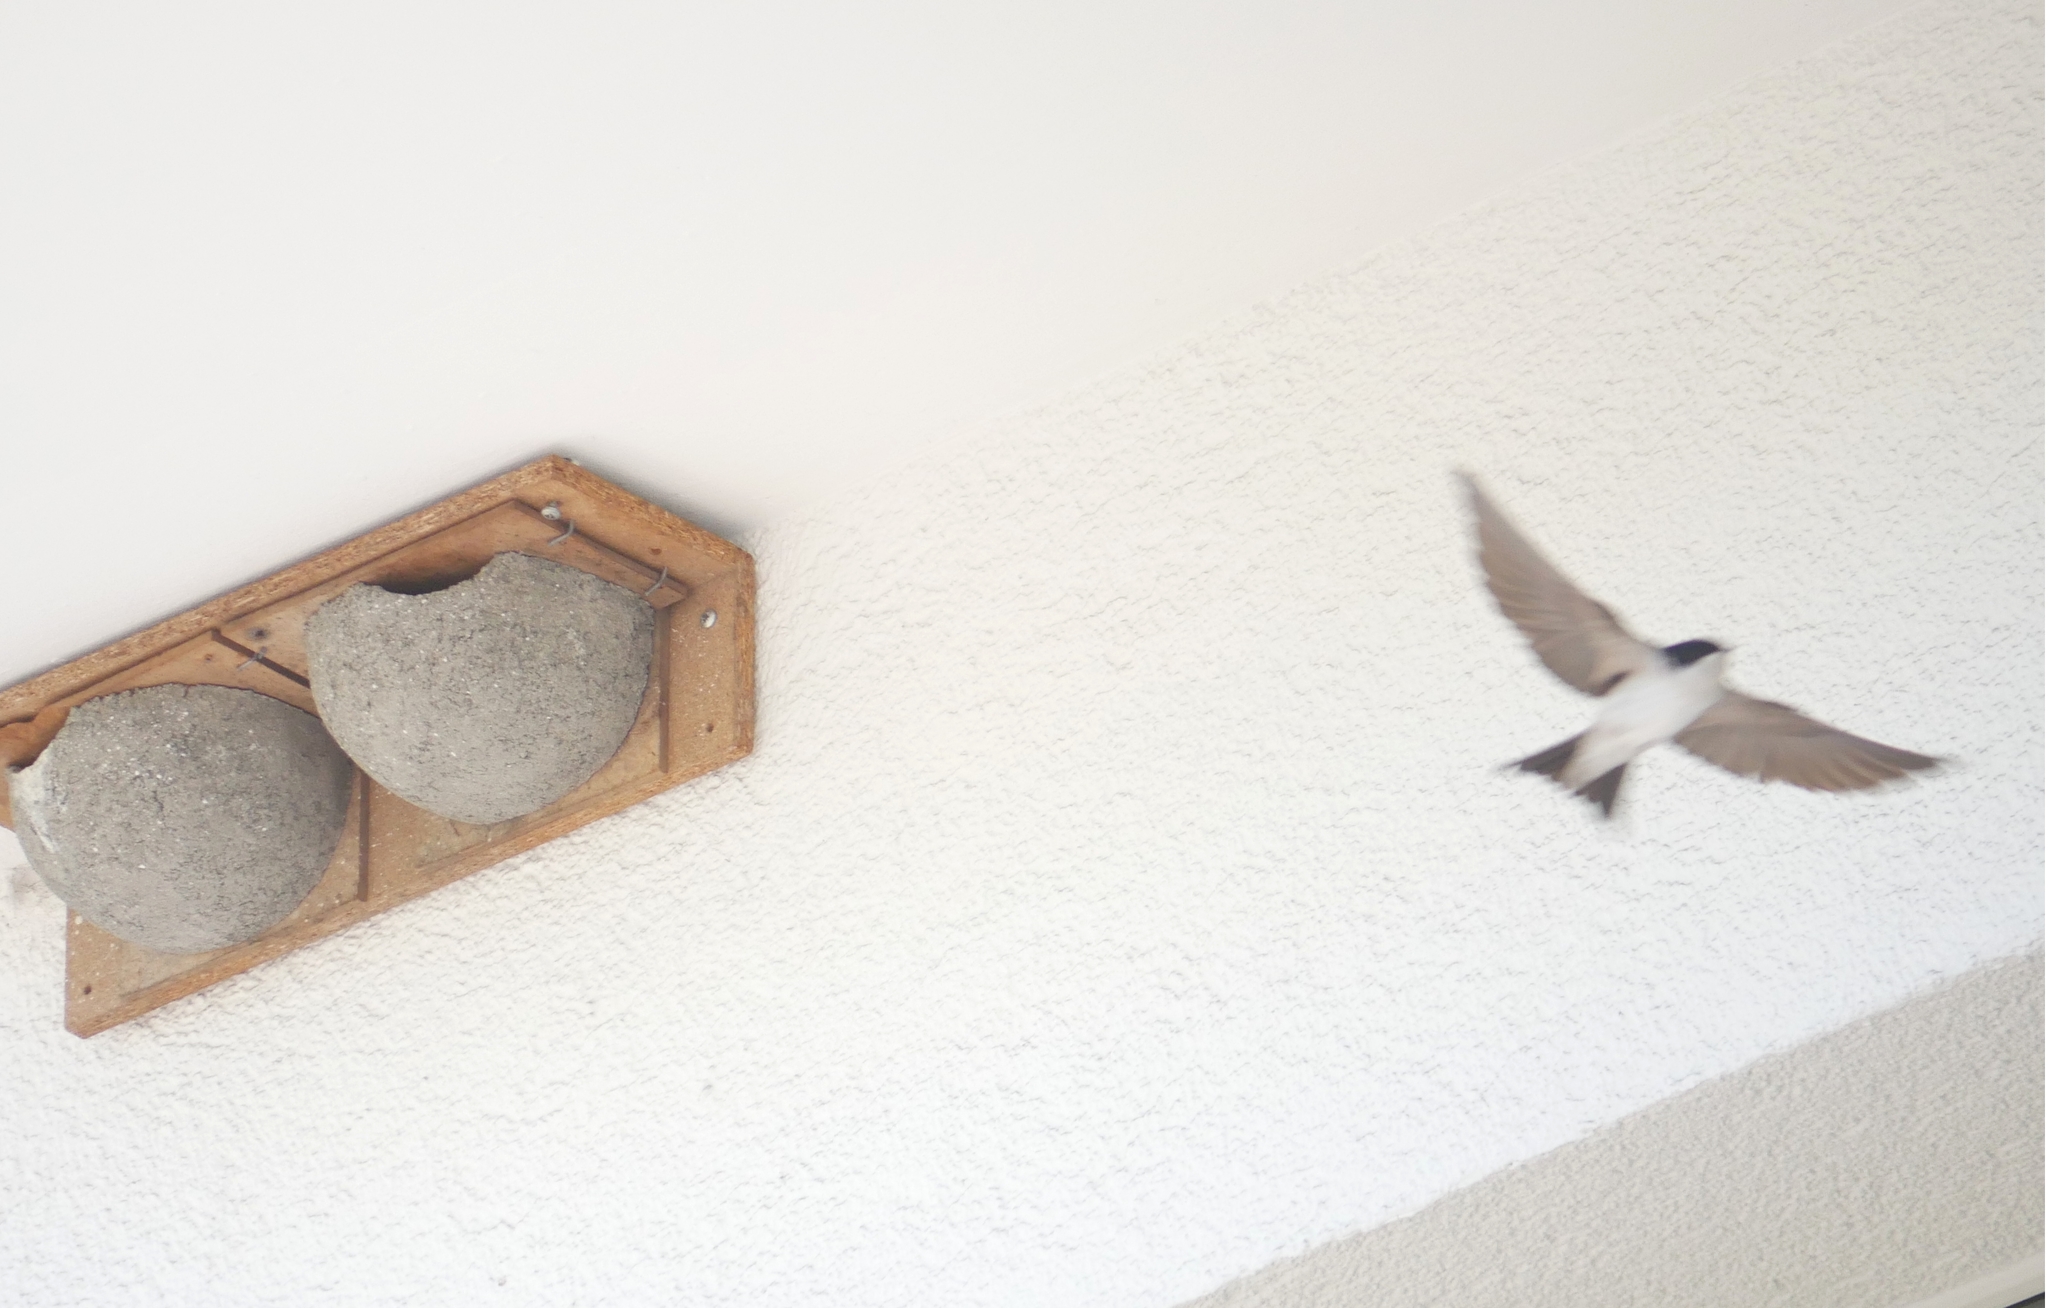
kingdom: Animalia
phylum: Chordata
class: Aves
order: Passeriformes
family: Hirundinidae
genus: Delichon
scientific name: Delichon urbicum
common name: Common house martin
